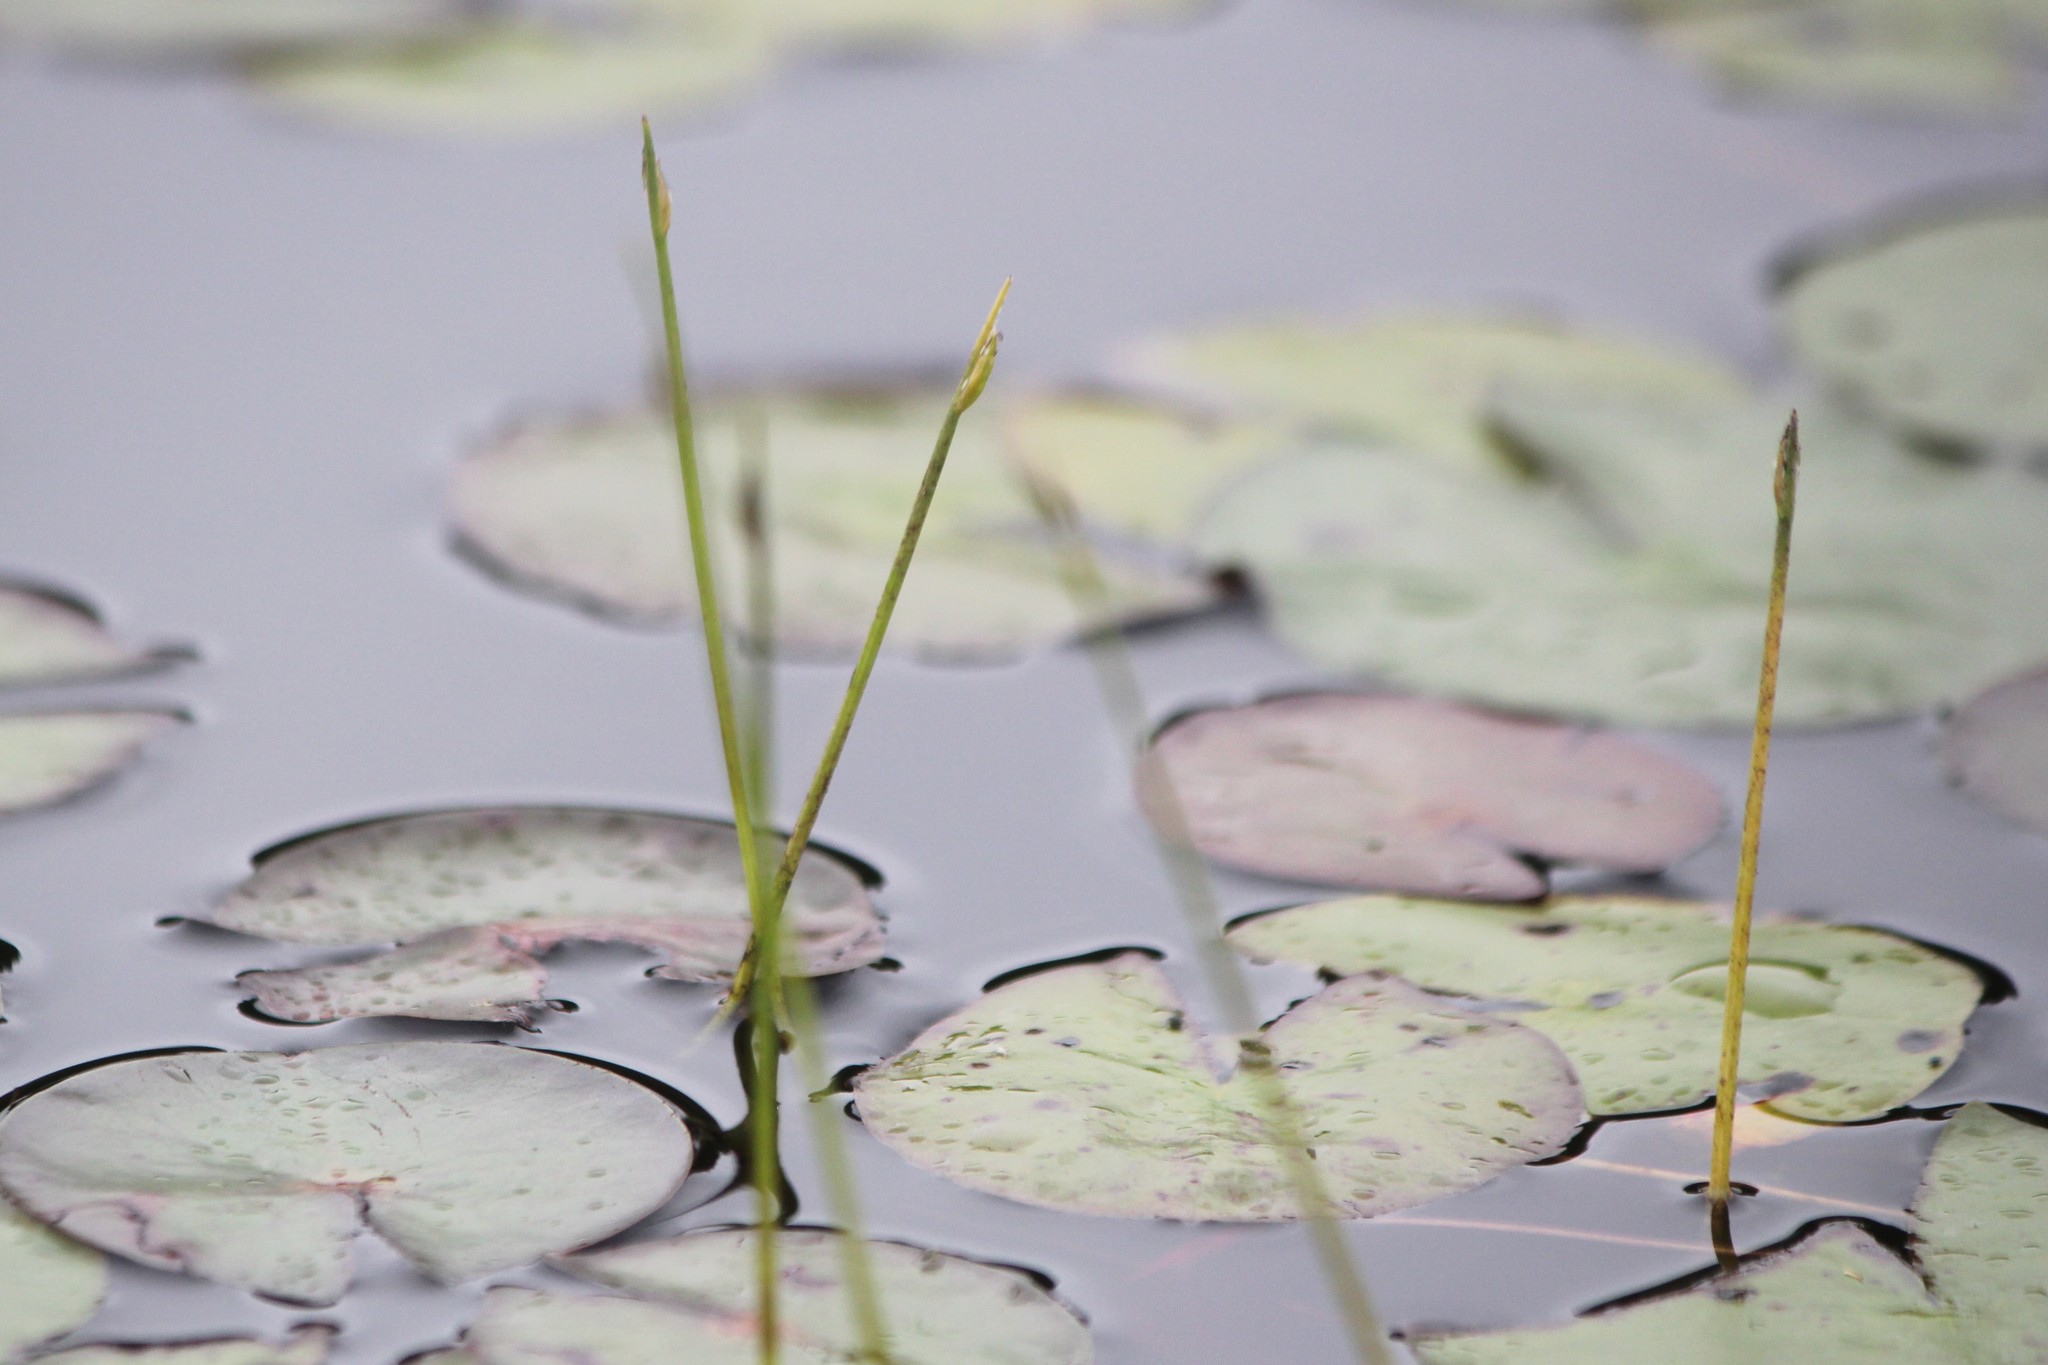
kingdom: Plantae
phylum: Tracheophyta
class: Liliopsida
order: Poales
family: Cyperaceae
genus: Schoenoplectus
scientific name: Schoenoplectus subterminalis
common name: Swaying bulrush
